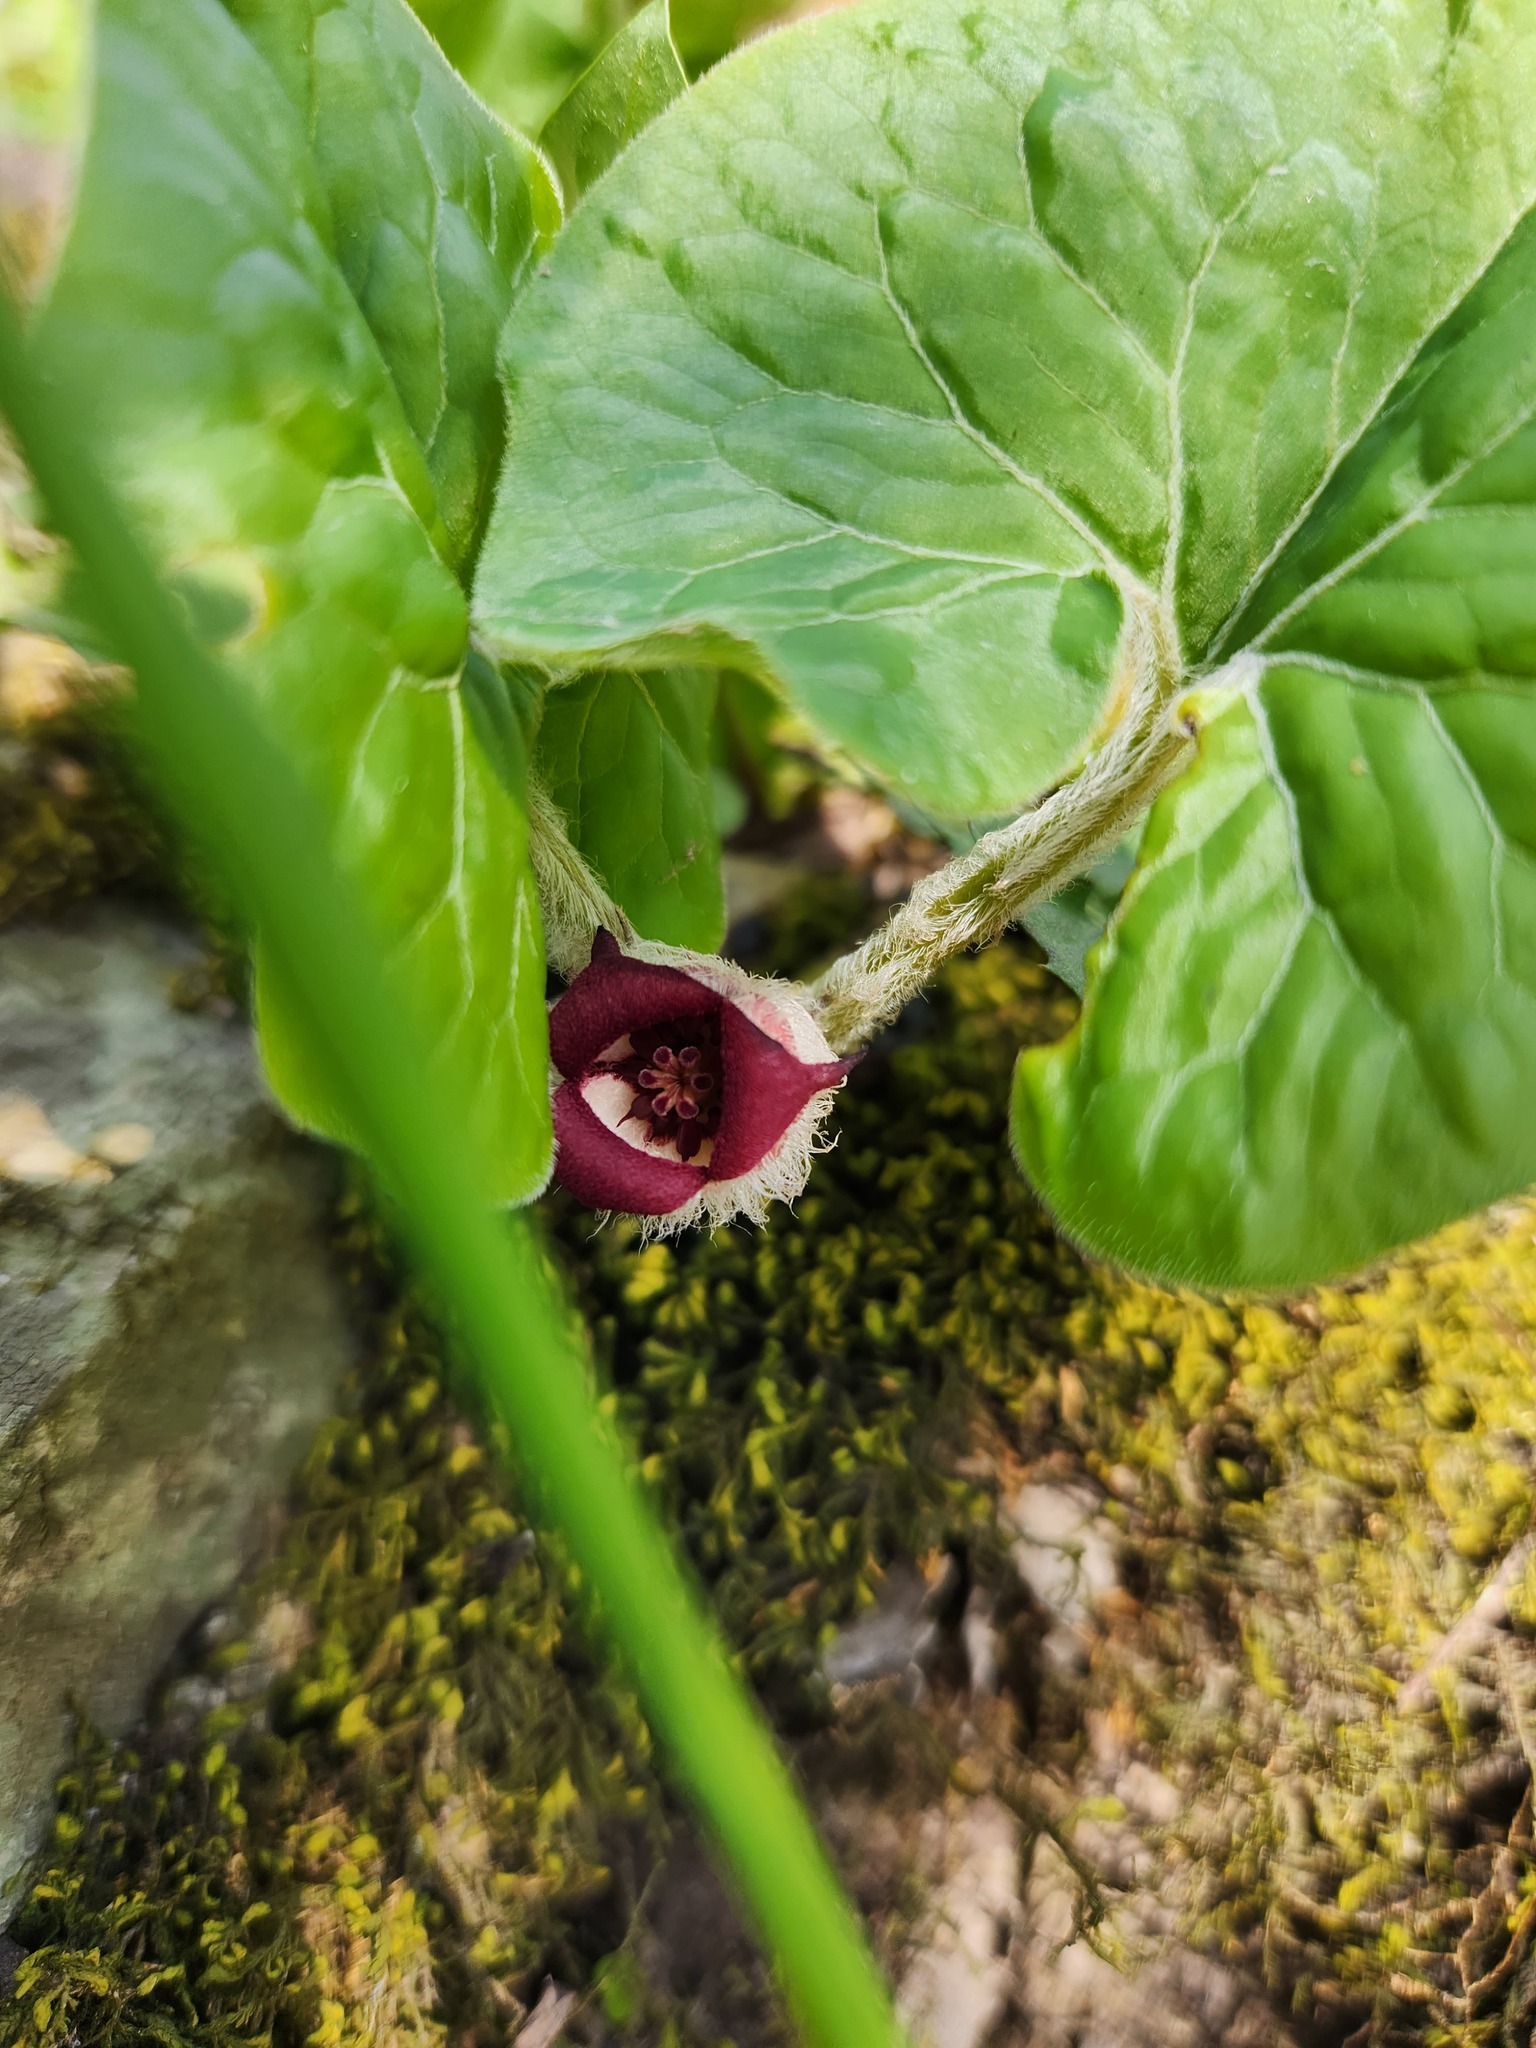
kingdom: Plantae
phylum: Tracheophyta
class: Magnoliopsida
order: Piperales
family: Aristolochiaceae
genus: Asarum
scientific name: Asarum canadense
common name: Wild ginger
